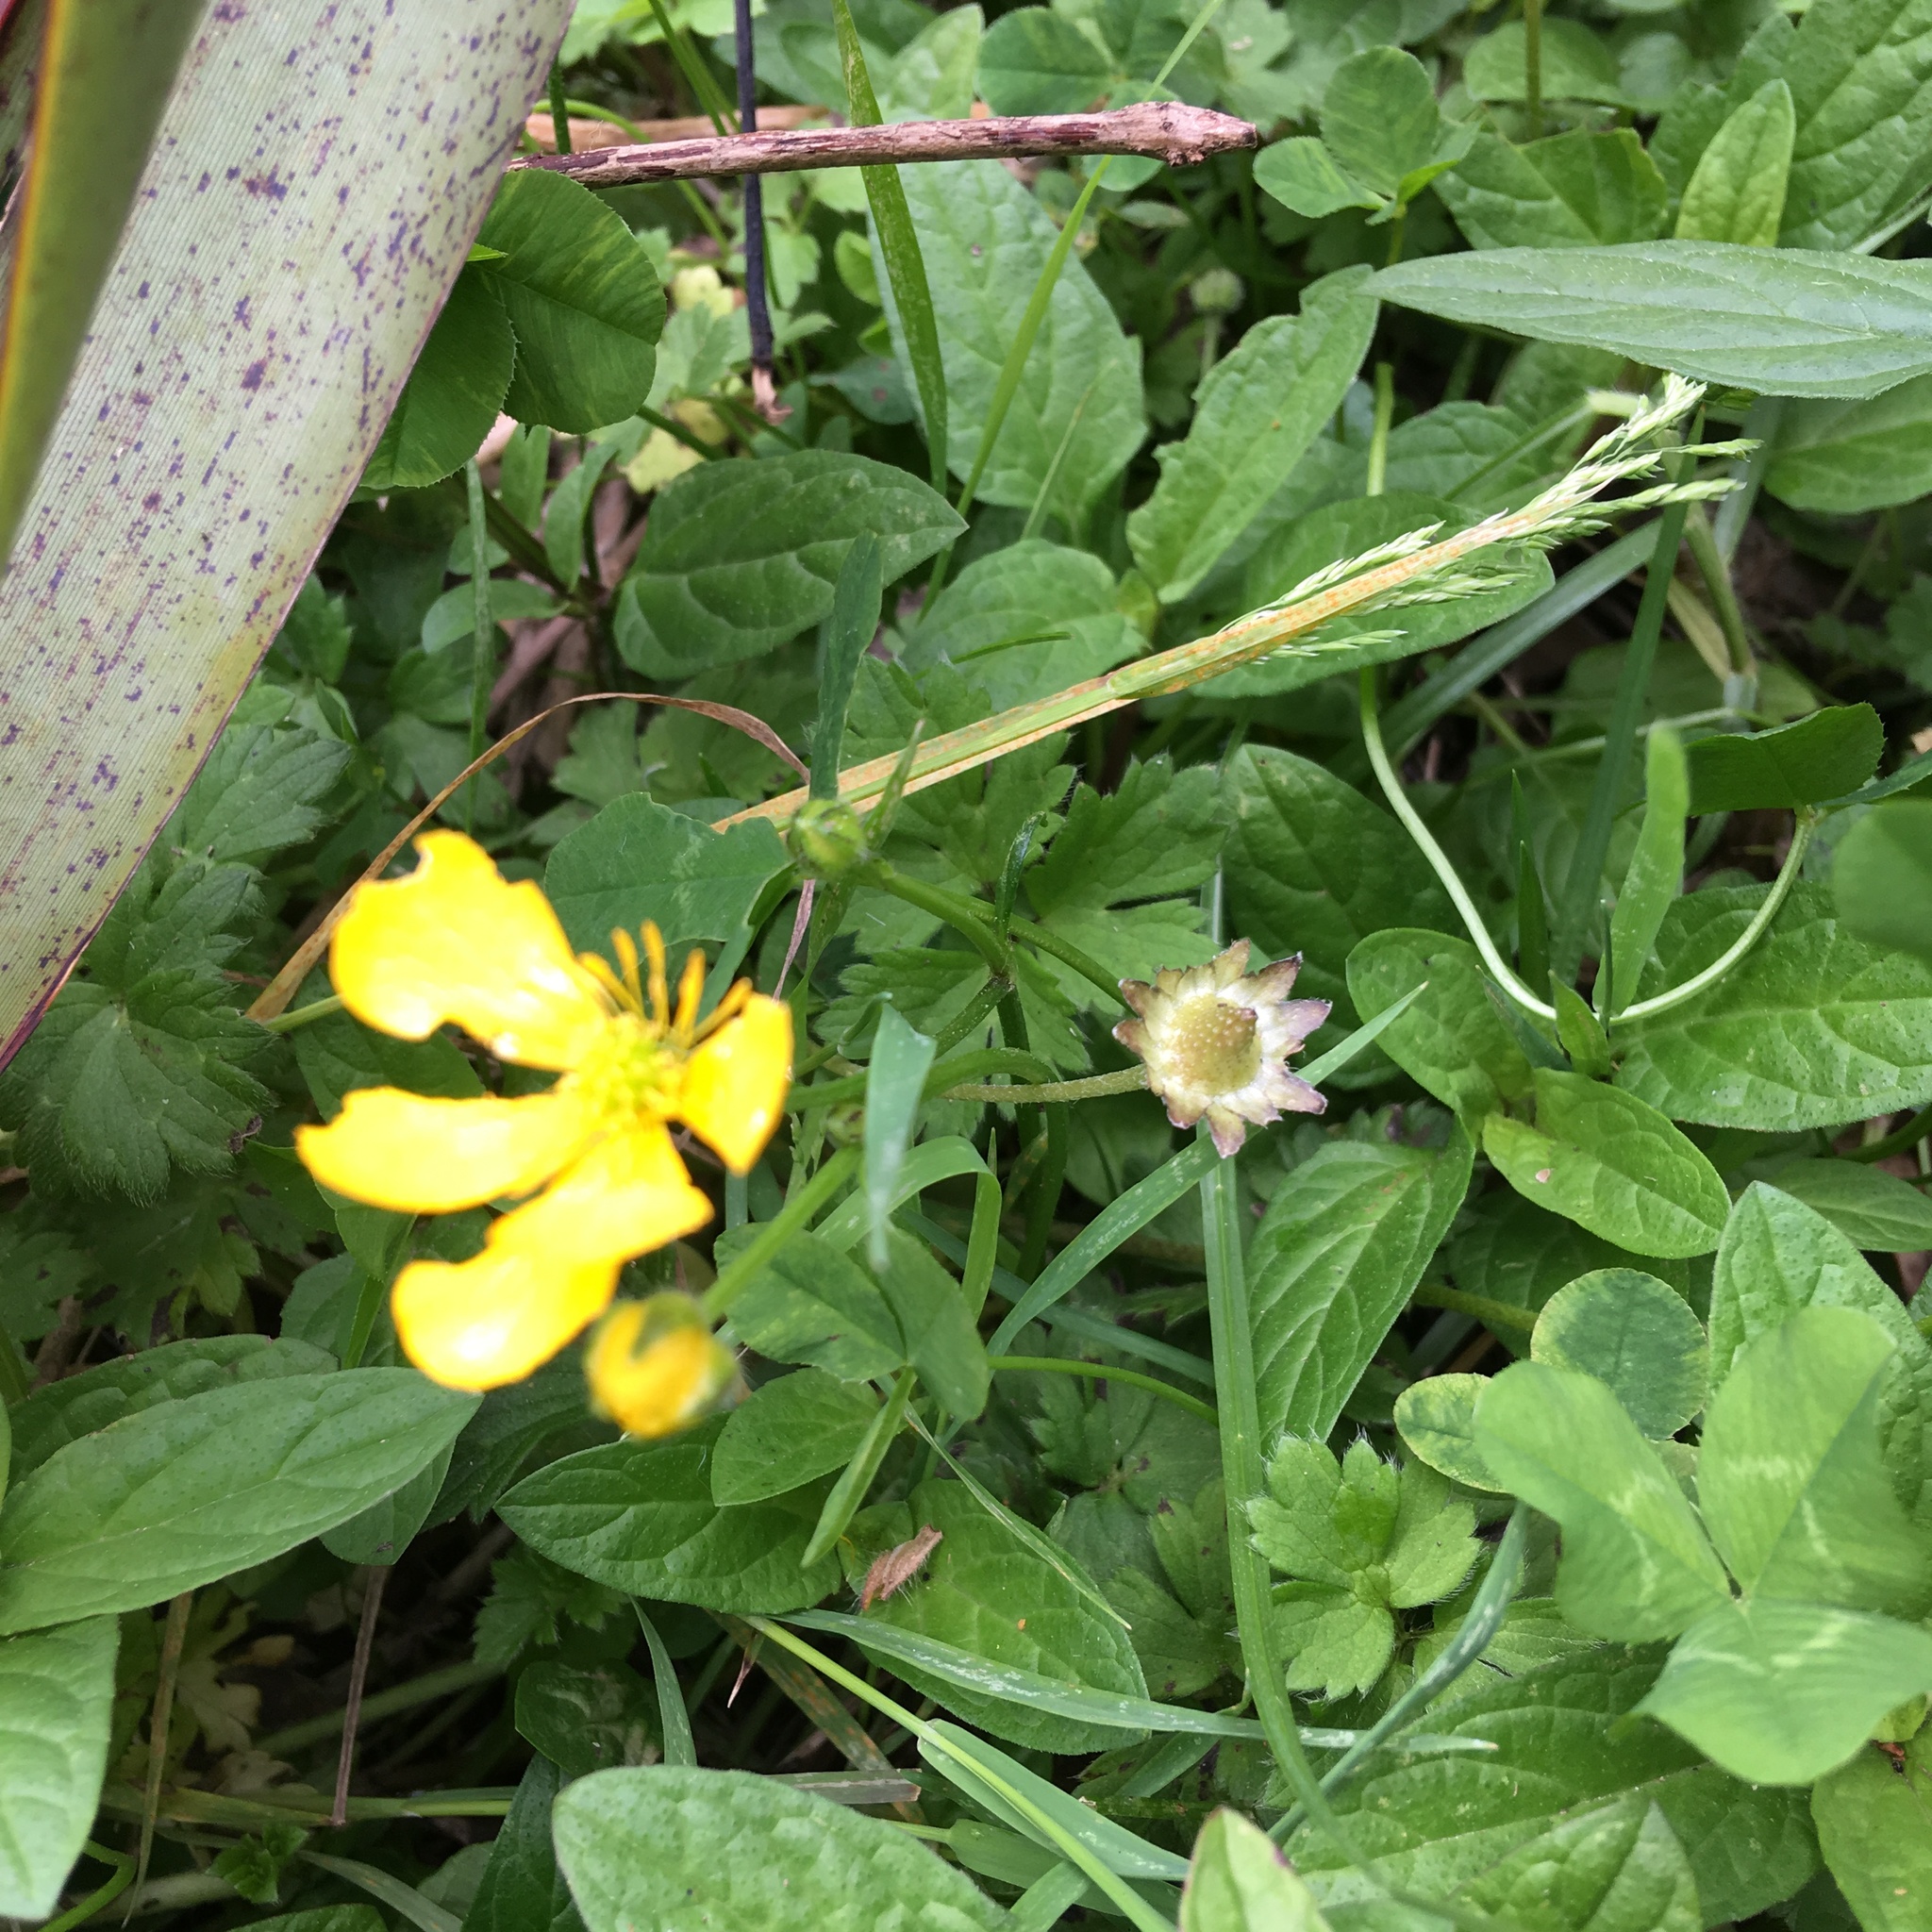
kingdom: Plantae
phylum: Tracheophyta
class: Magnoliopsida
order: Lamiales
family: Lamiaceae
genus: Prunella
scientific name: Prunella vulgaris
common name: Heal-all
